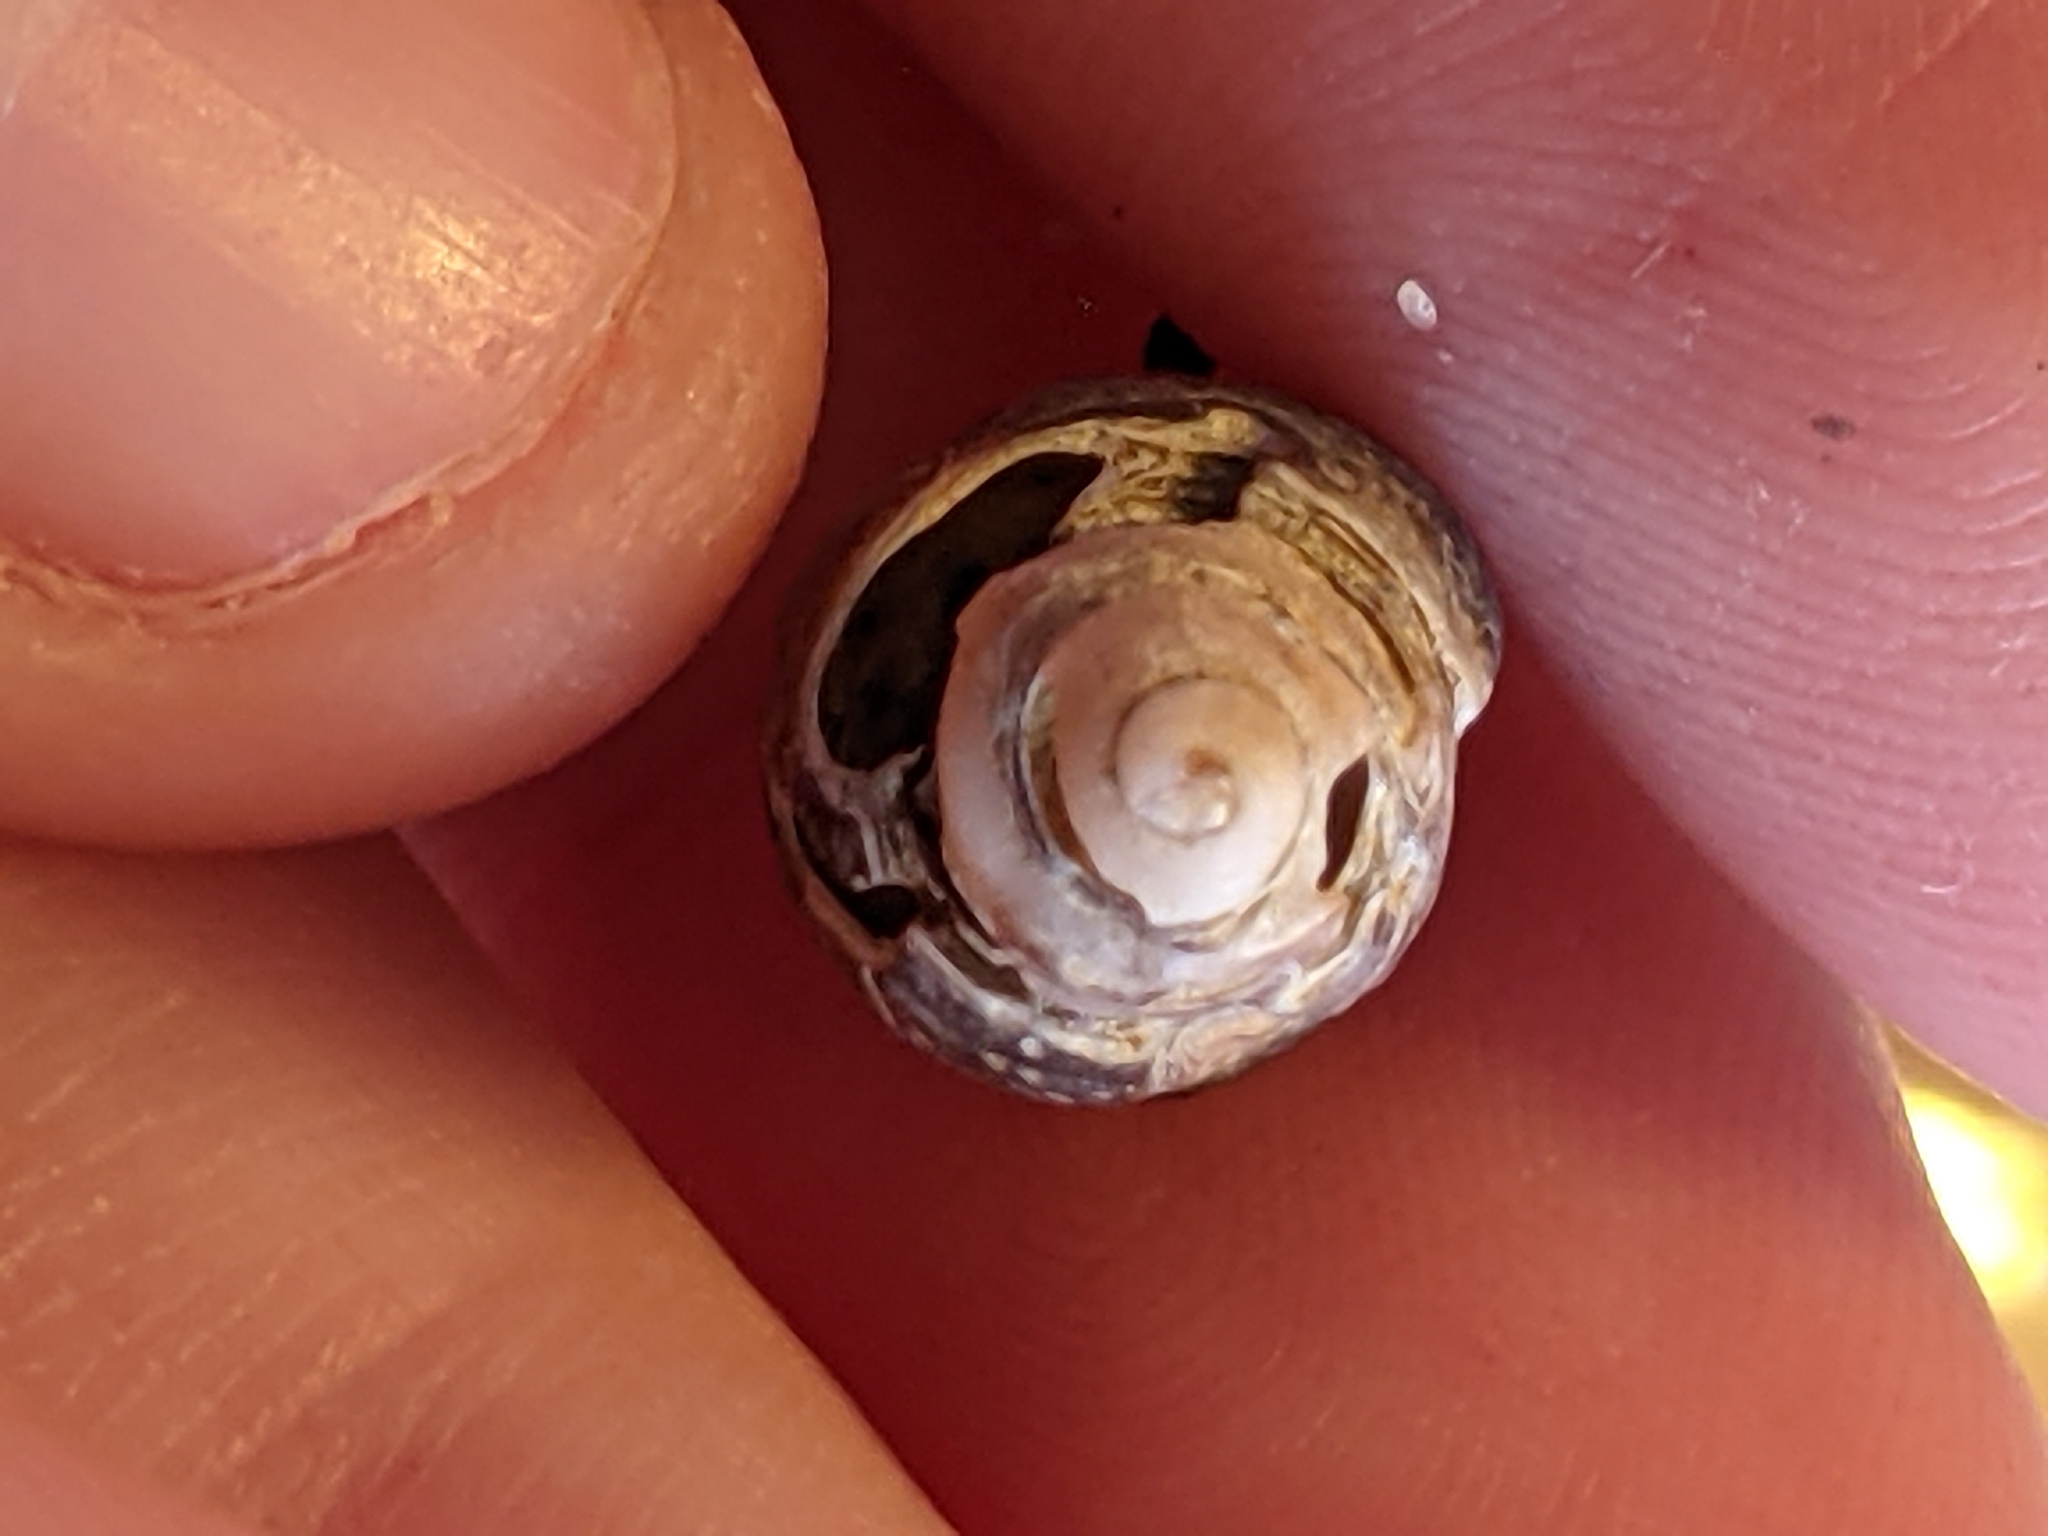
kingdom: Animalia
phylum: Mollusca
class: Gastropoda
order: Neogastropoda
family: Nassariidae
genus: Ilyanassa
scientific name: Ilyanassa obsoleta
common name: Eastern mudsnail
